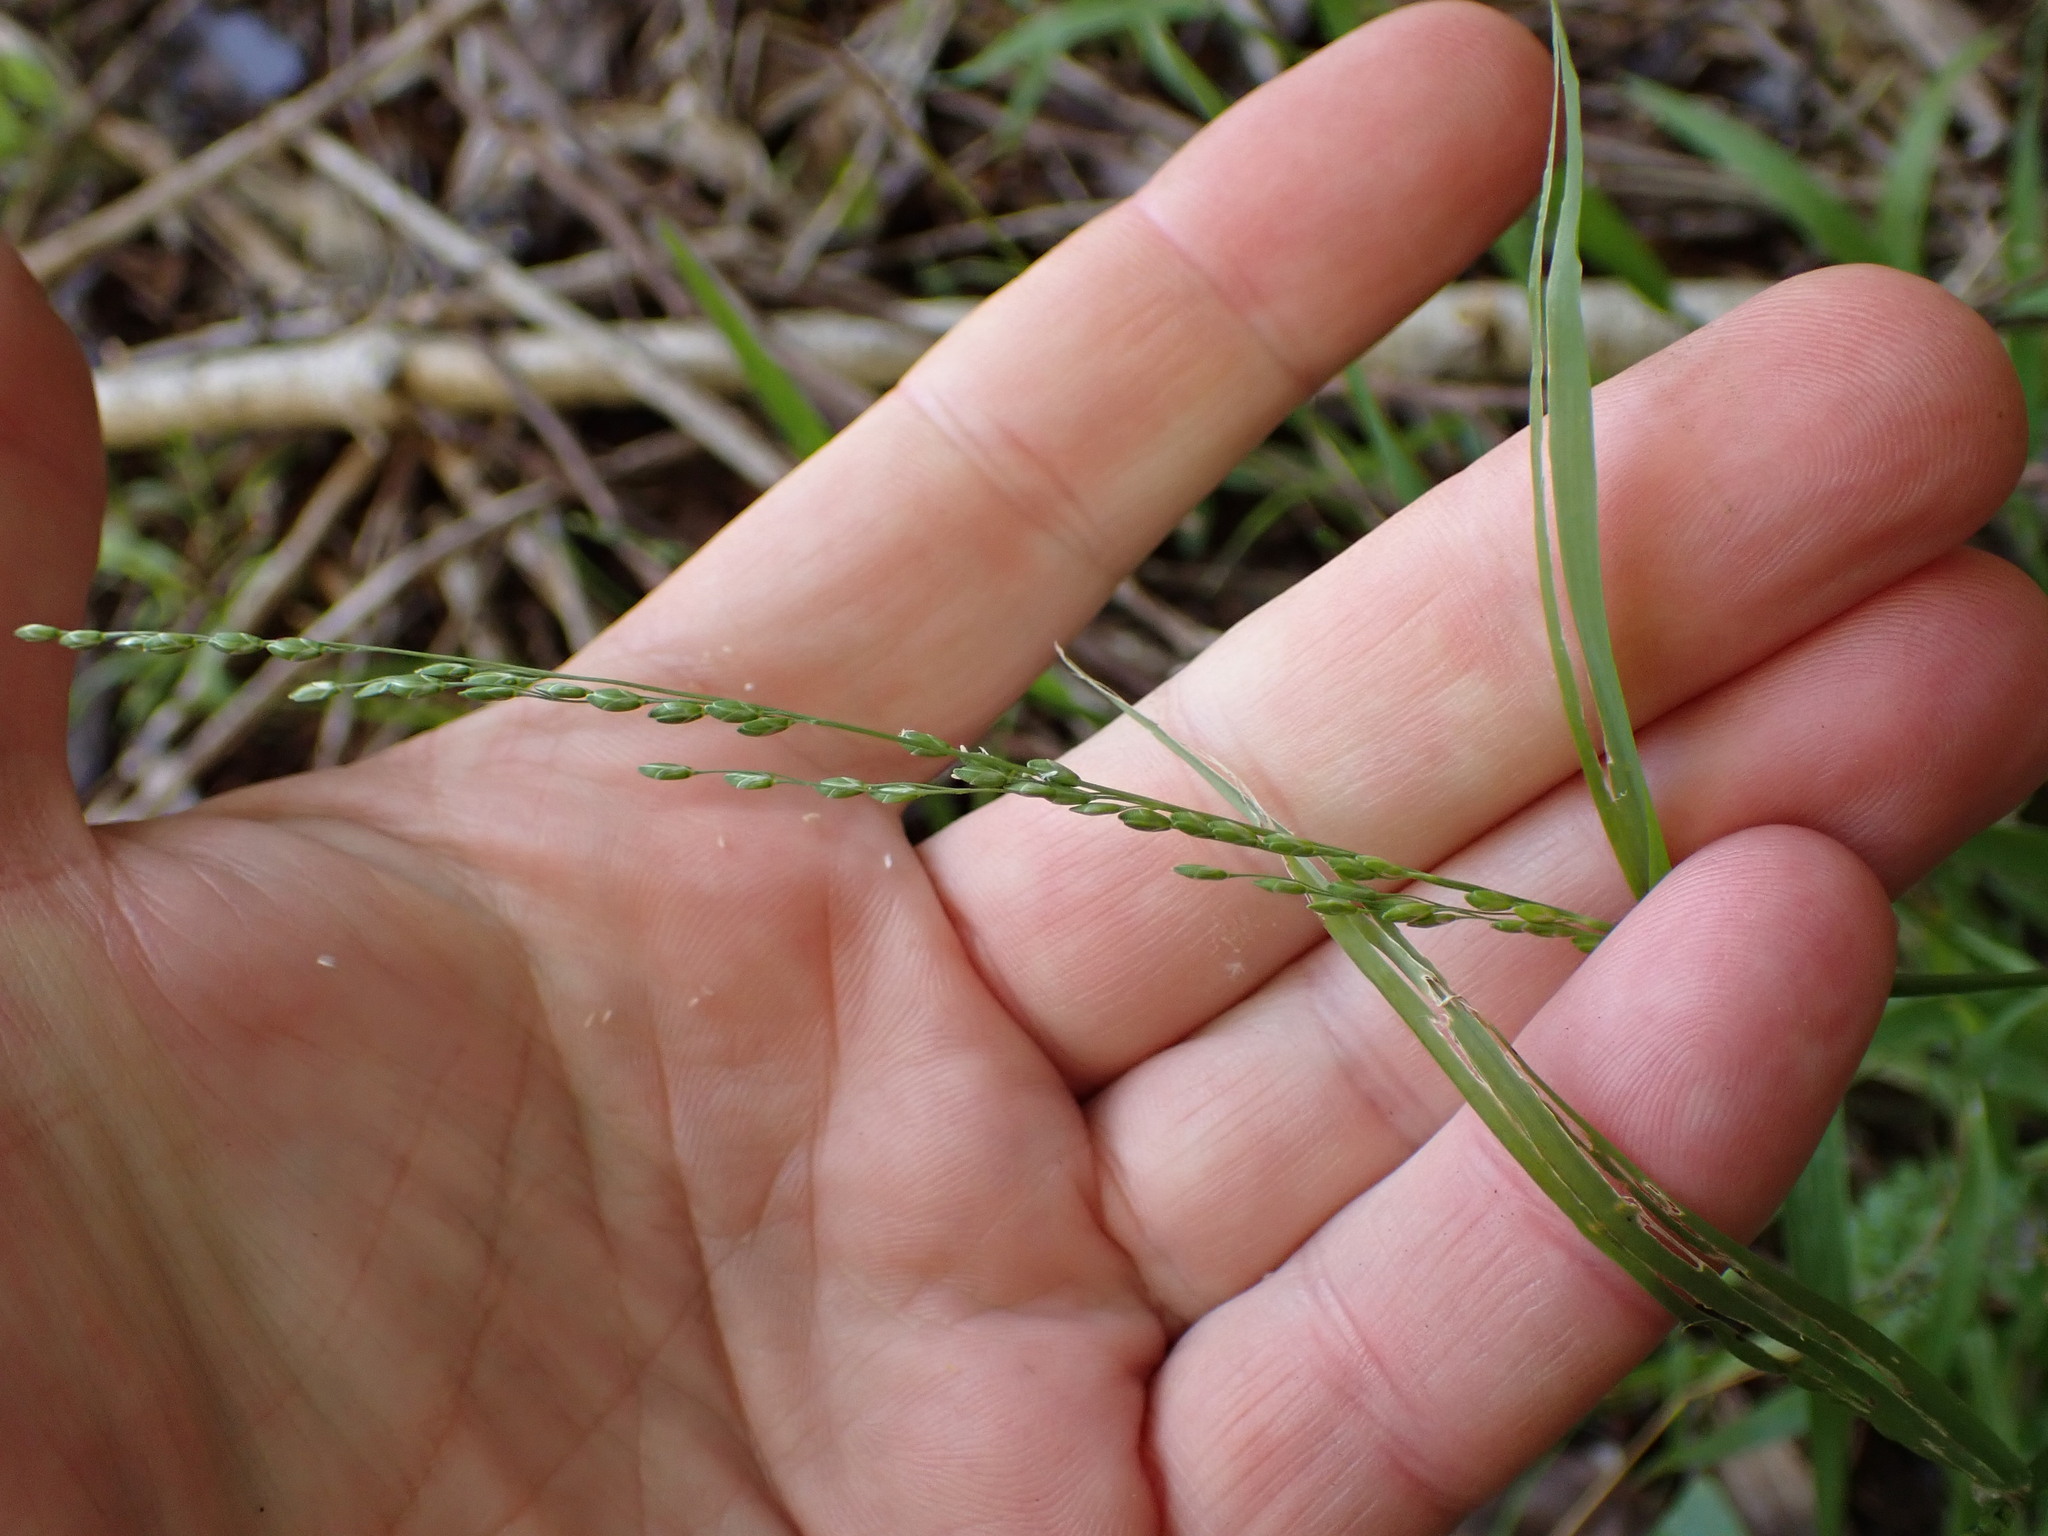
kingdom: Plantae
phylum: Tracheophyta
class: Liliopsida
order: Poales
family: Poaceae
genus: Ehrharta
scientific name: Ehrharta erecta
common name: Panic veldtgrass
